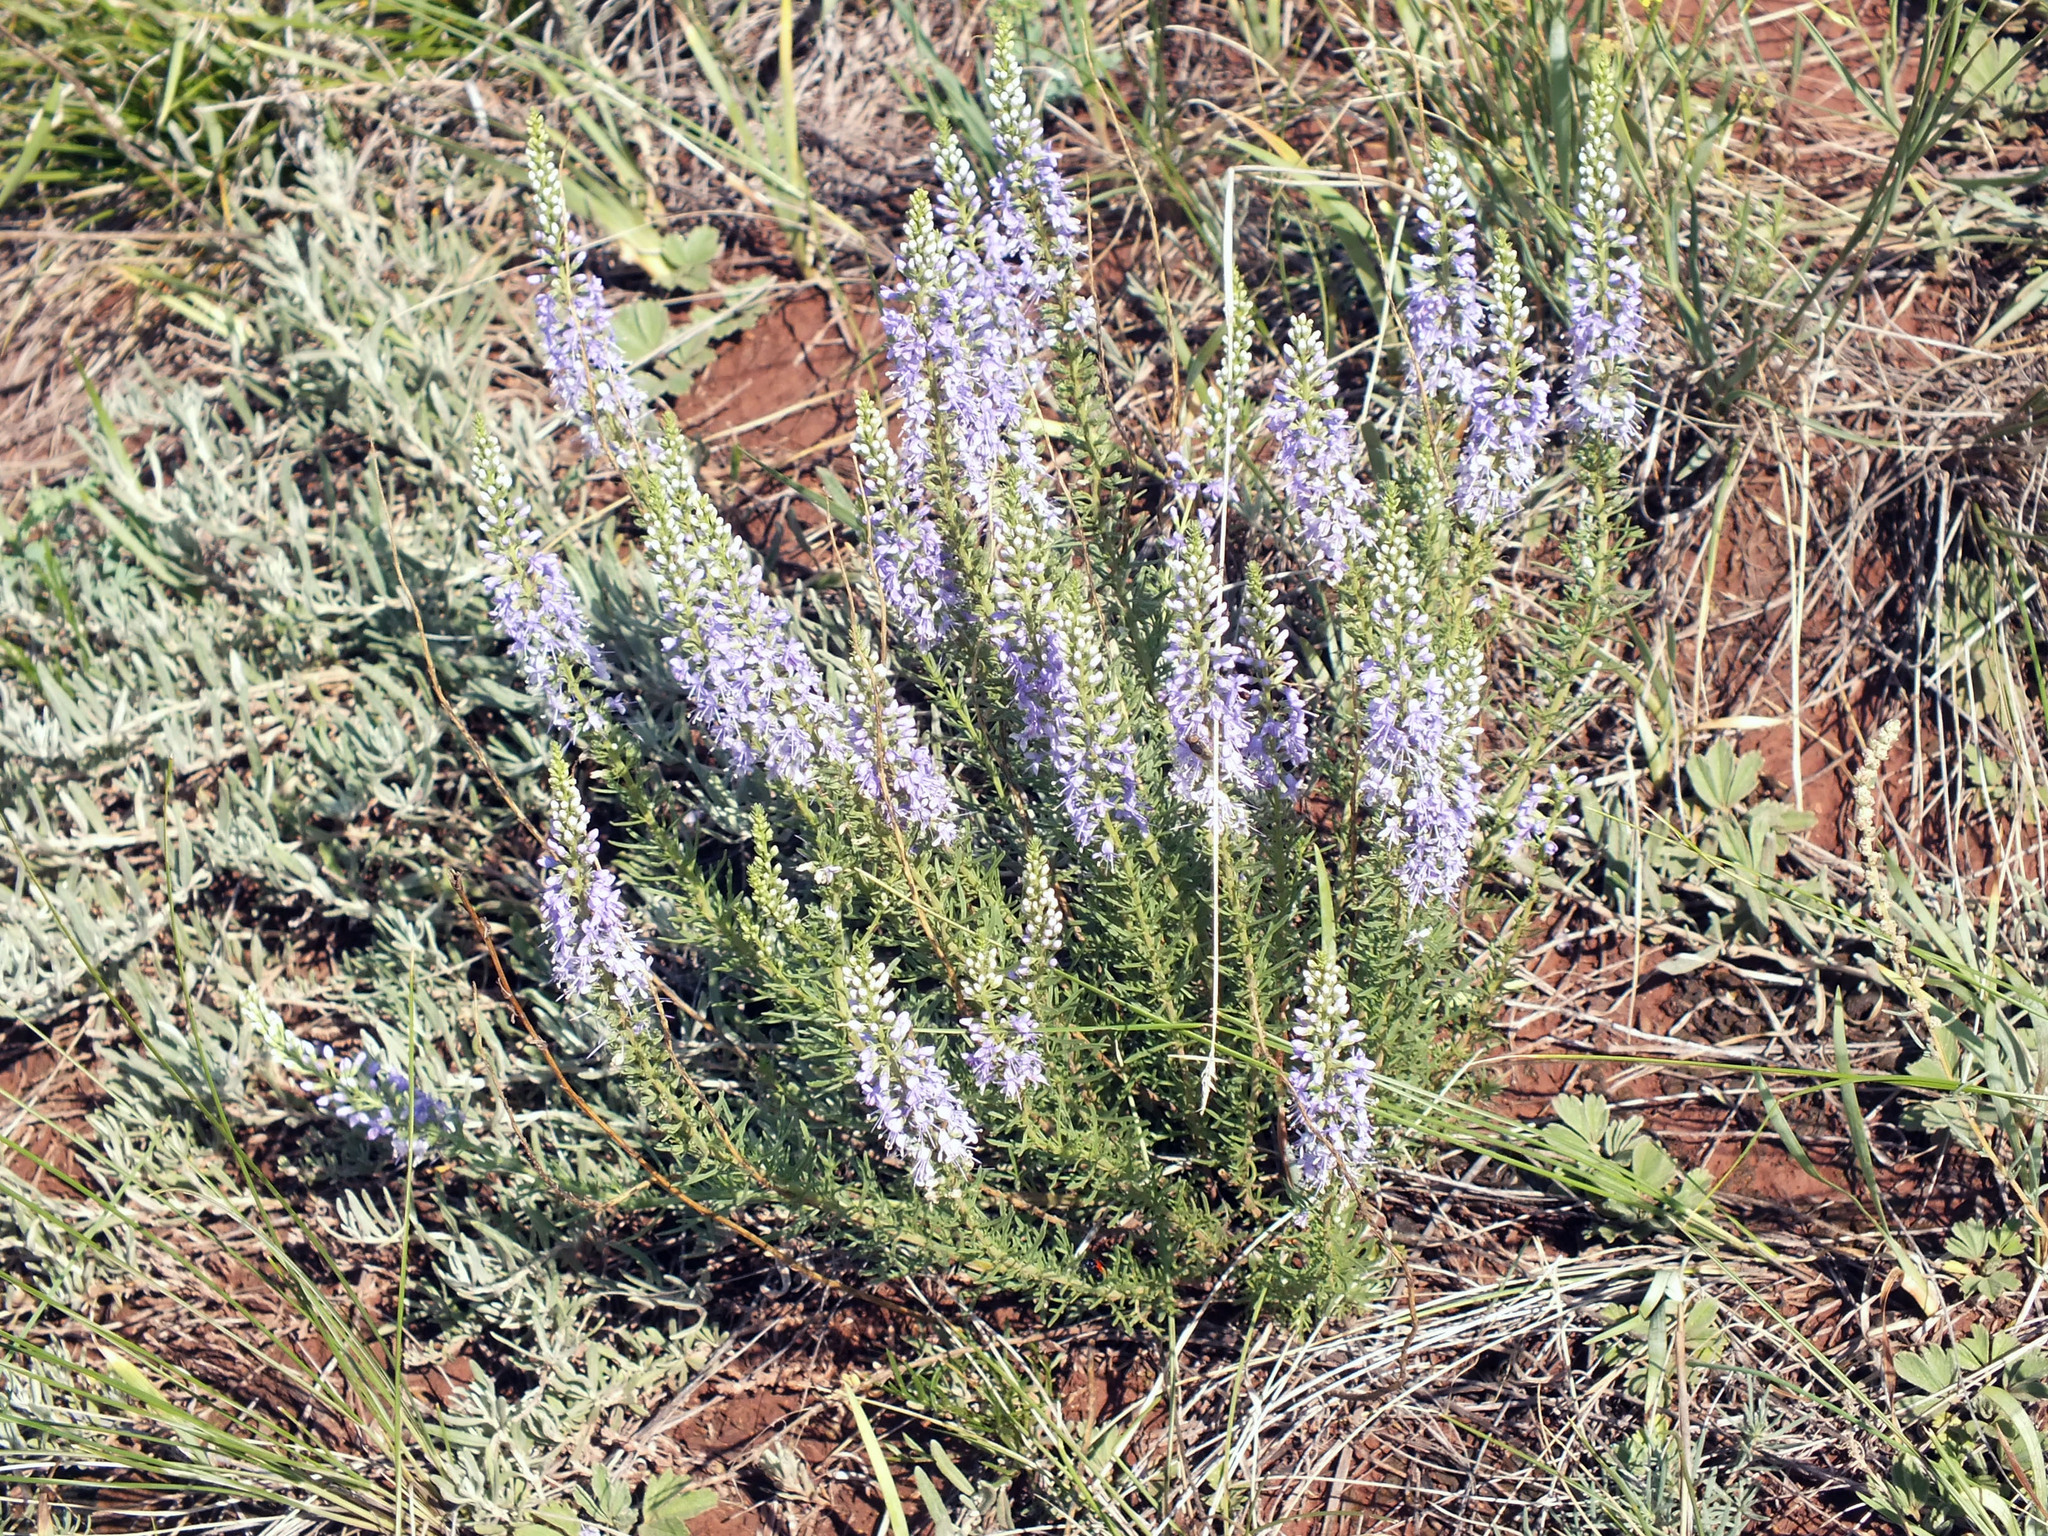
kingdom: Plantae
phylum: Tracheophyta
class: Magnoliopsida
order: Lamiales
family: Plantaginaceae
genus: Veronica
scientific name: Veronica pinnata
